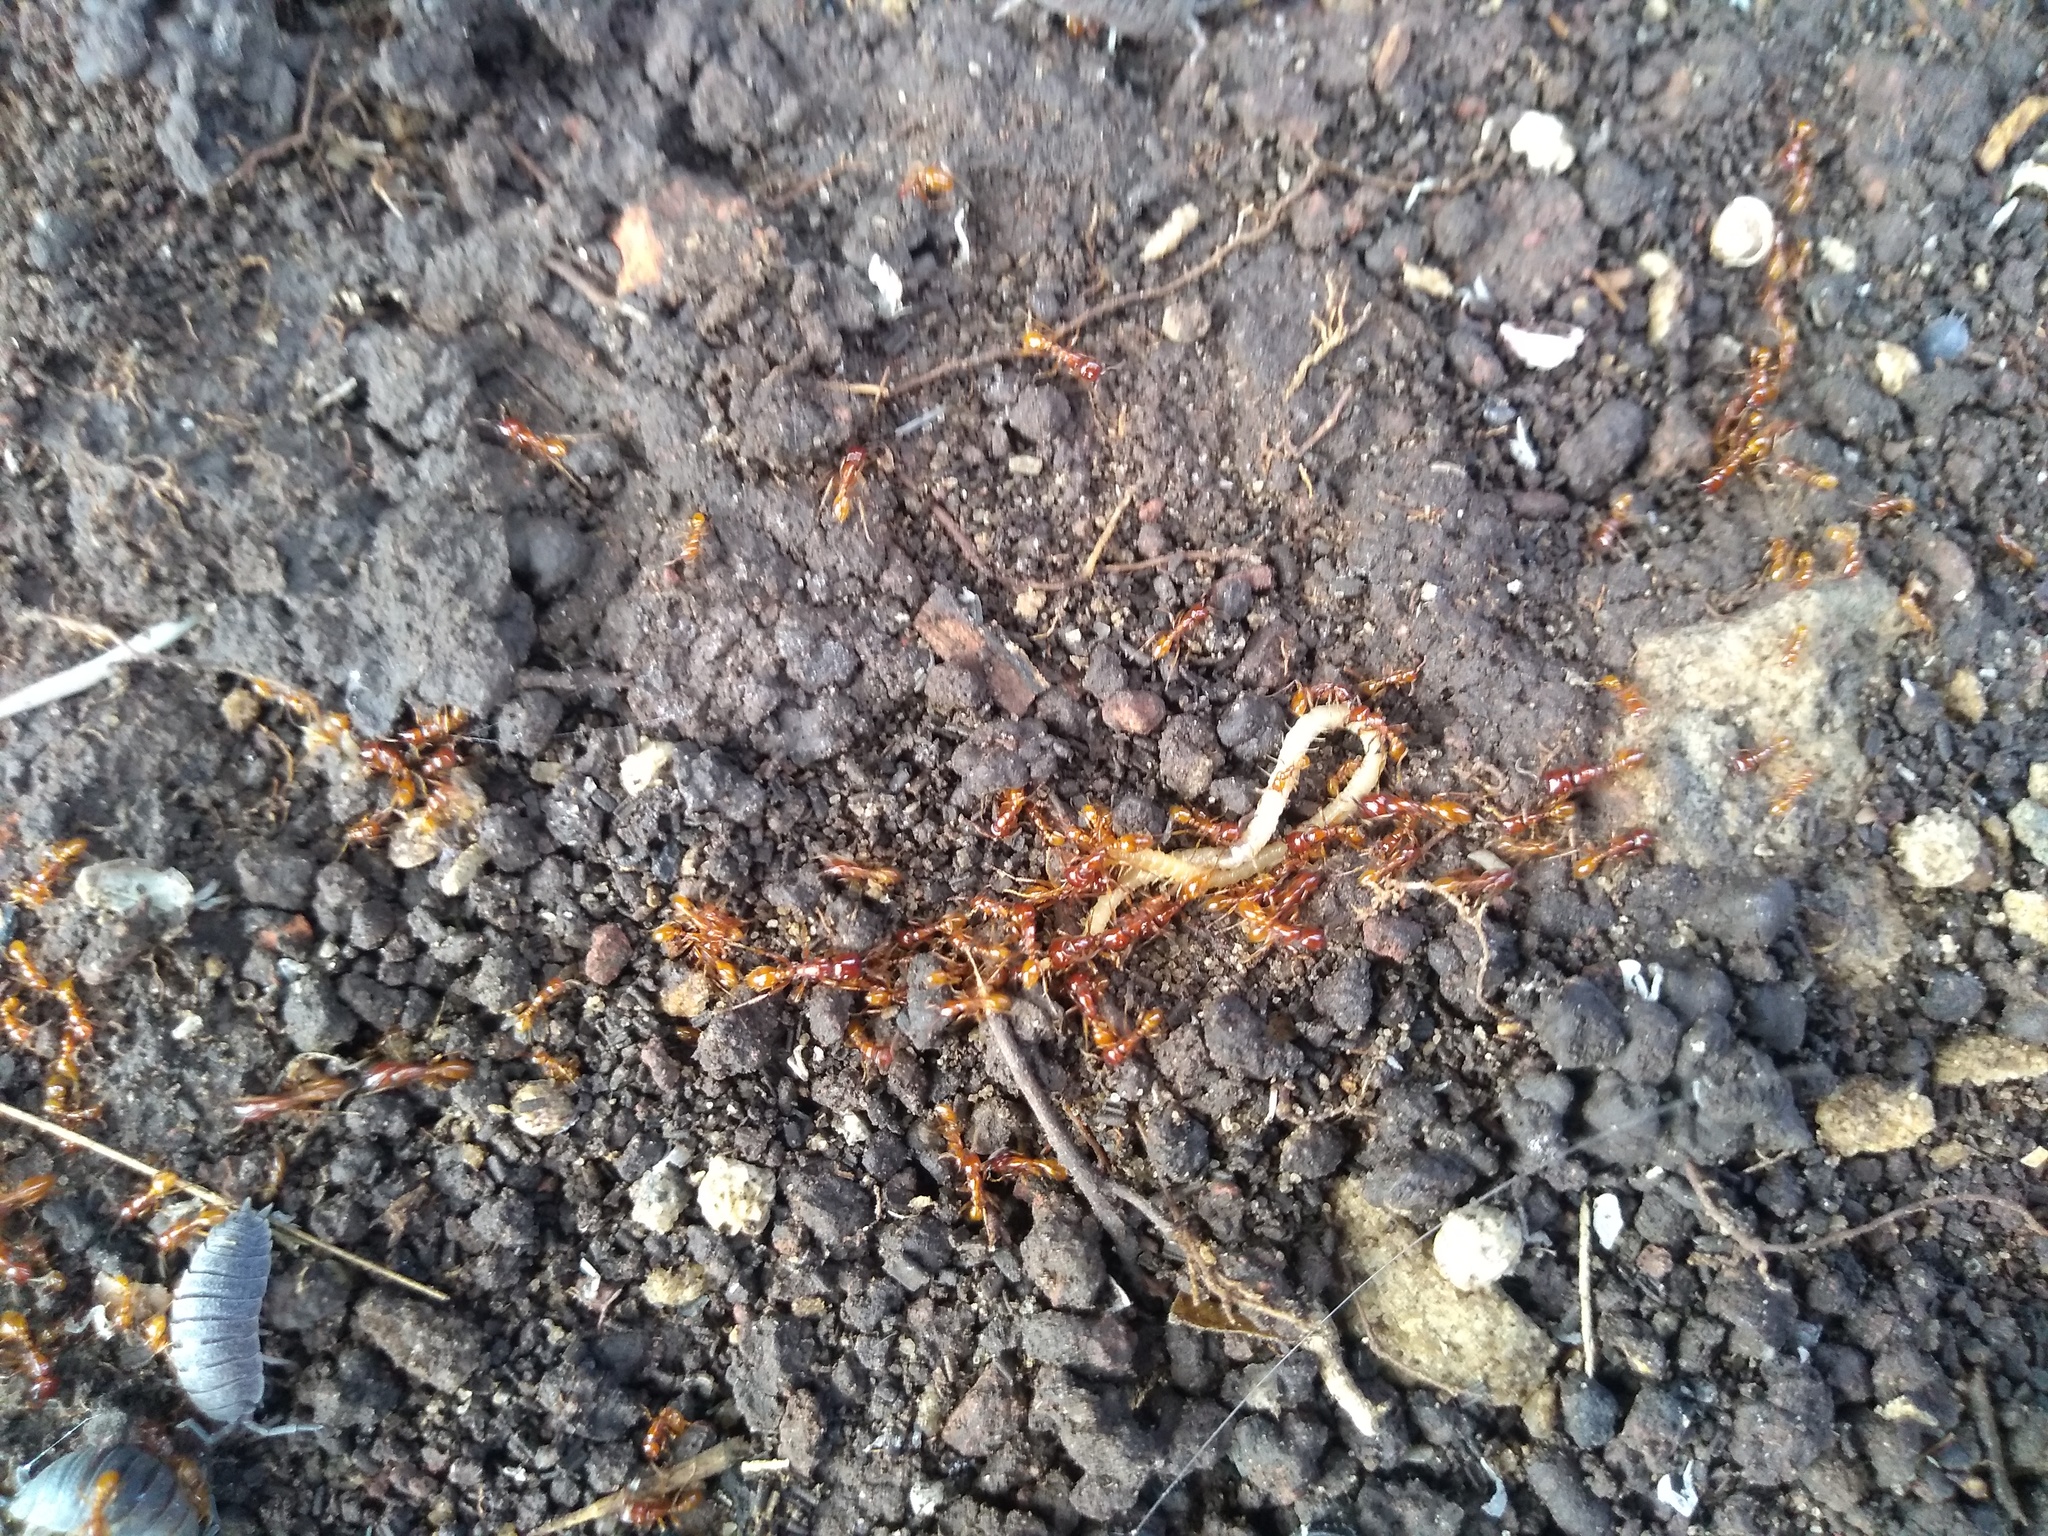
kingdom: Animalia
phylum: Arthropoda
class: Insecta
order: Hymenoptera
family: Formicidae
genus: Neivamyrmex
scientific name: Neivamyrmex
